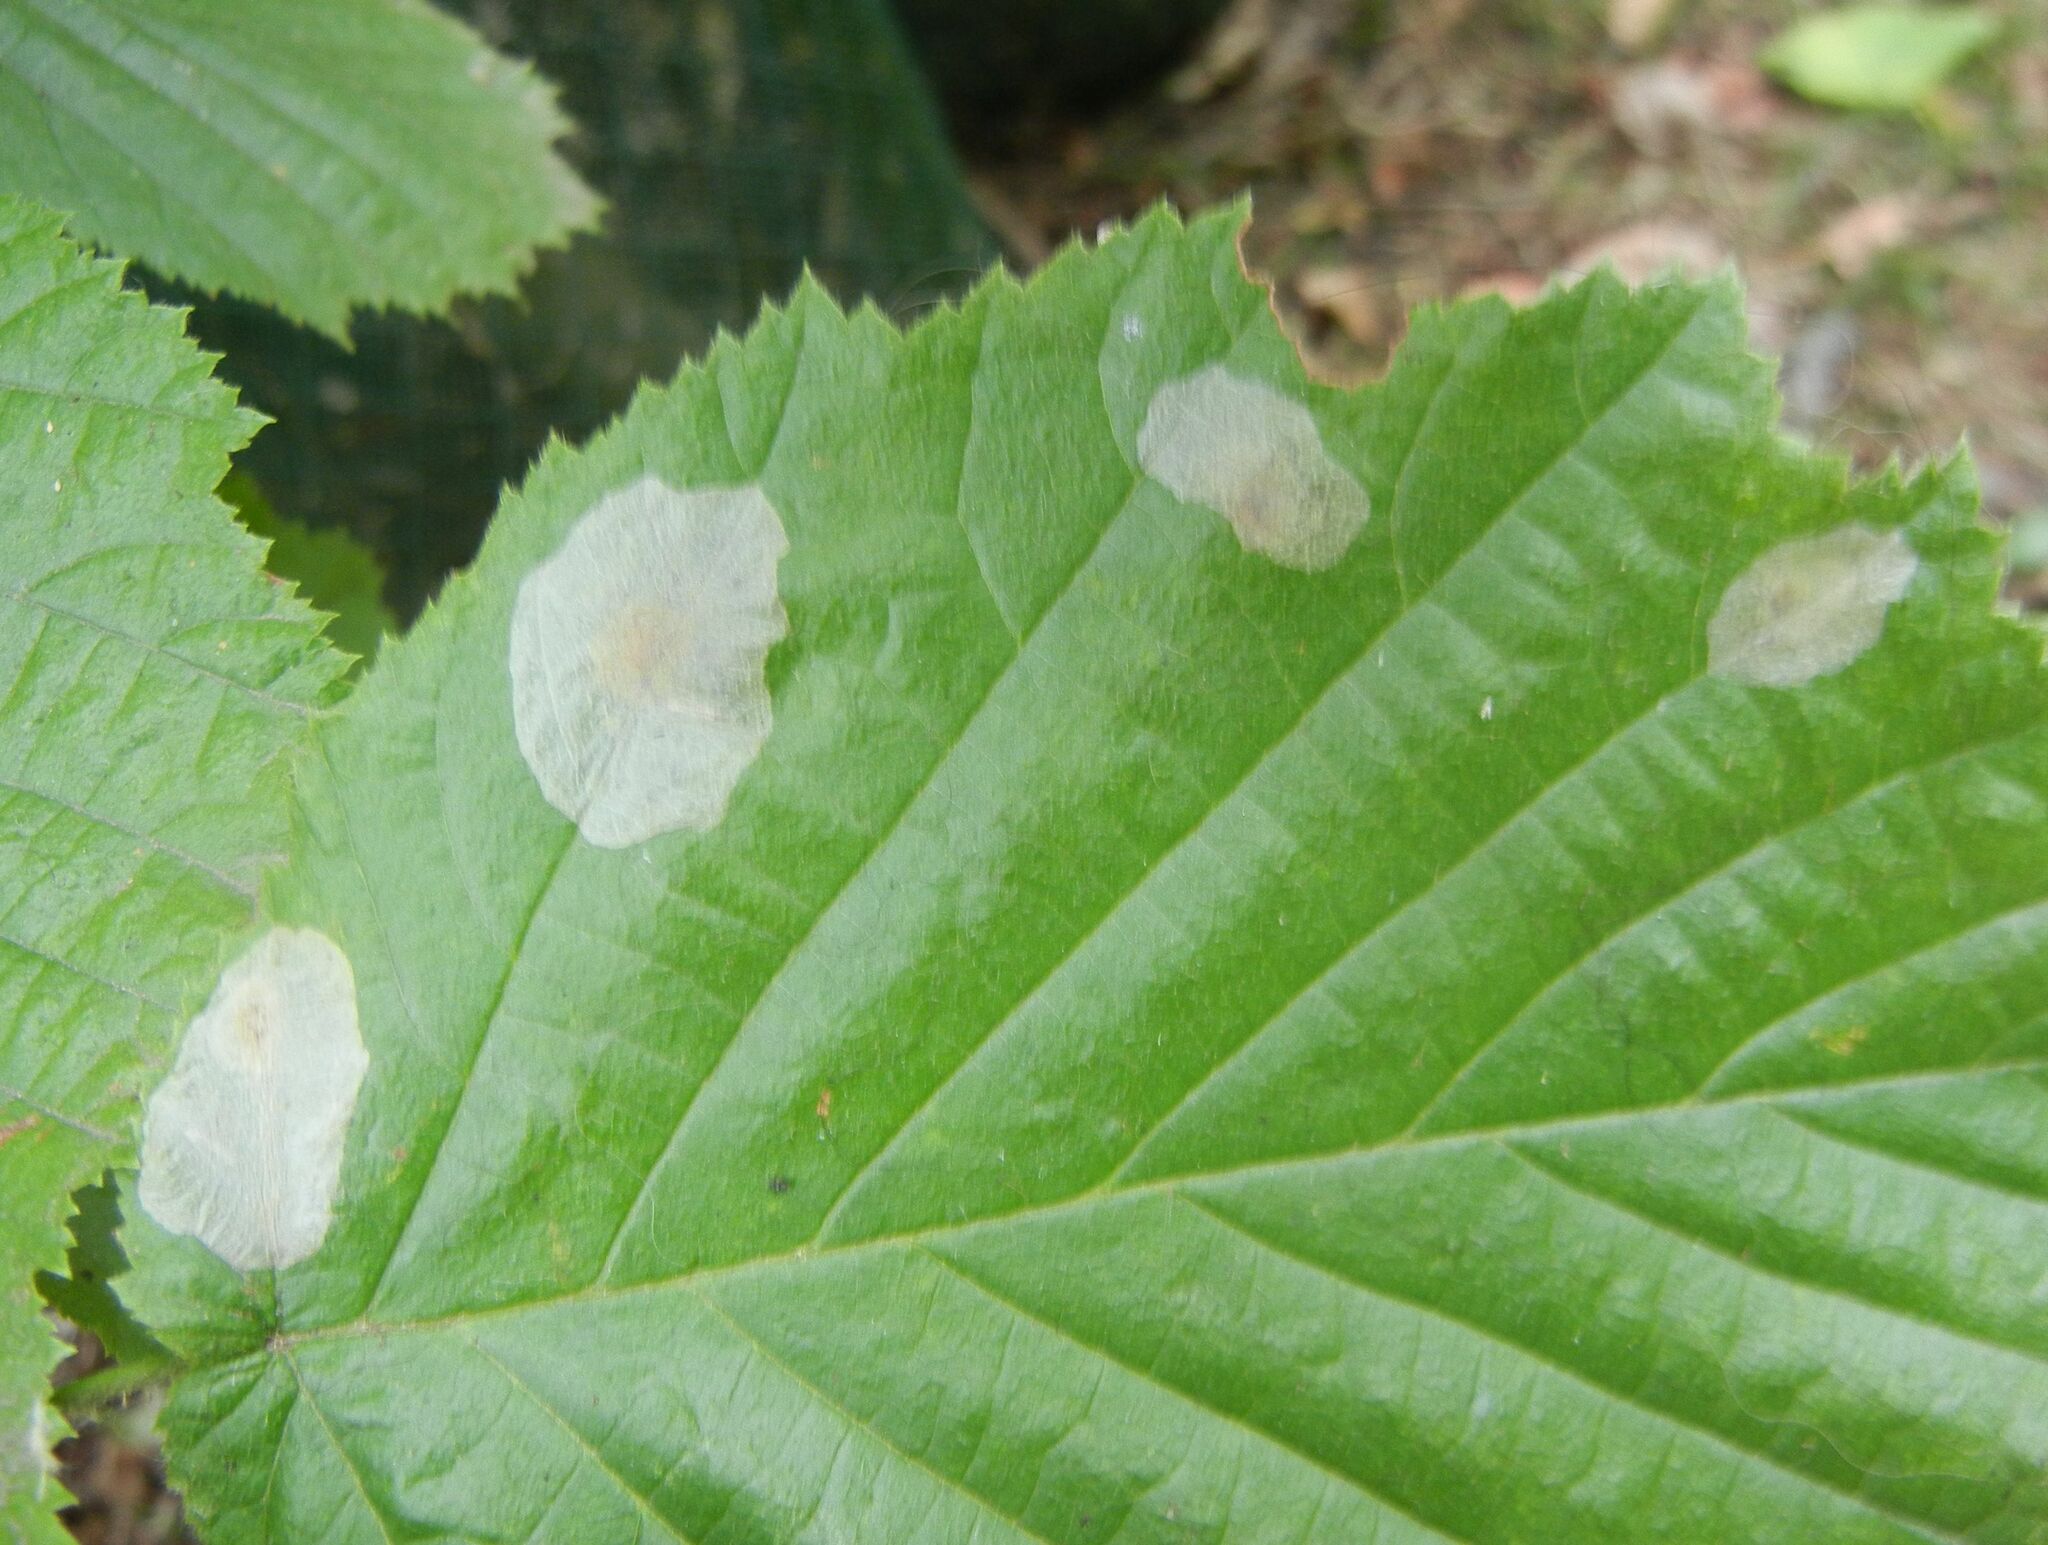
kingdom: Animalia
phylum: Arthropoda
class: Insecta
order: Lepidoptera
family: Gracillariidae
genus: Phyllonorycter
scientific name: Phyllonorycter coryli
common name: Nut-leaf blister moth
